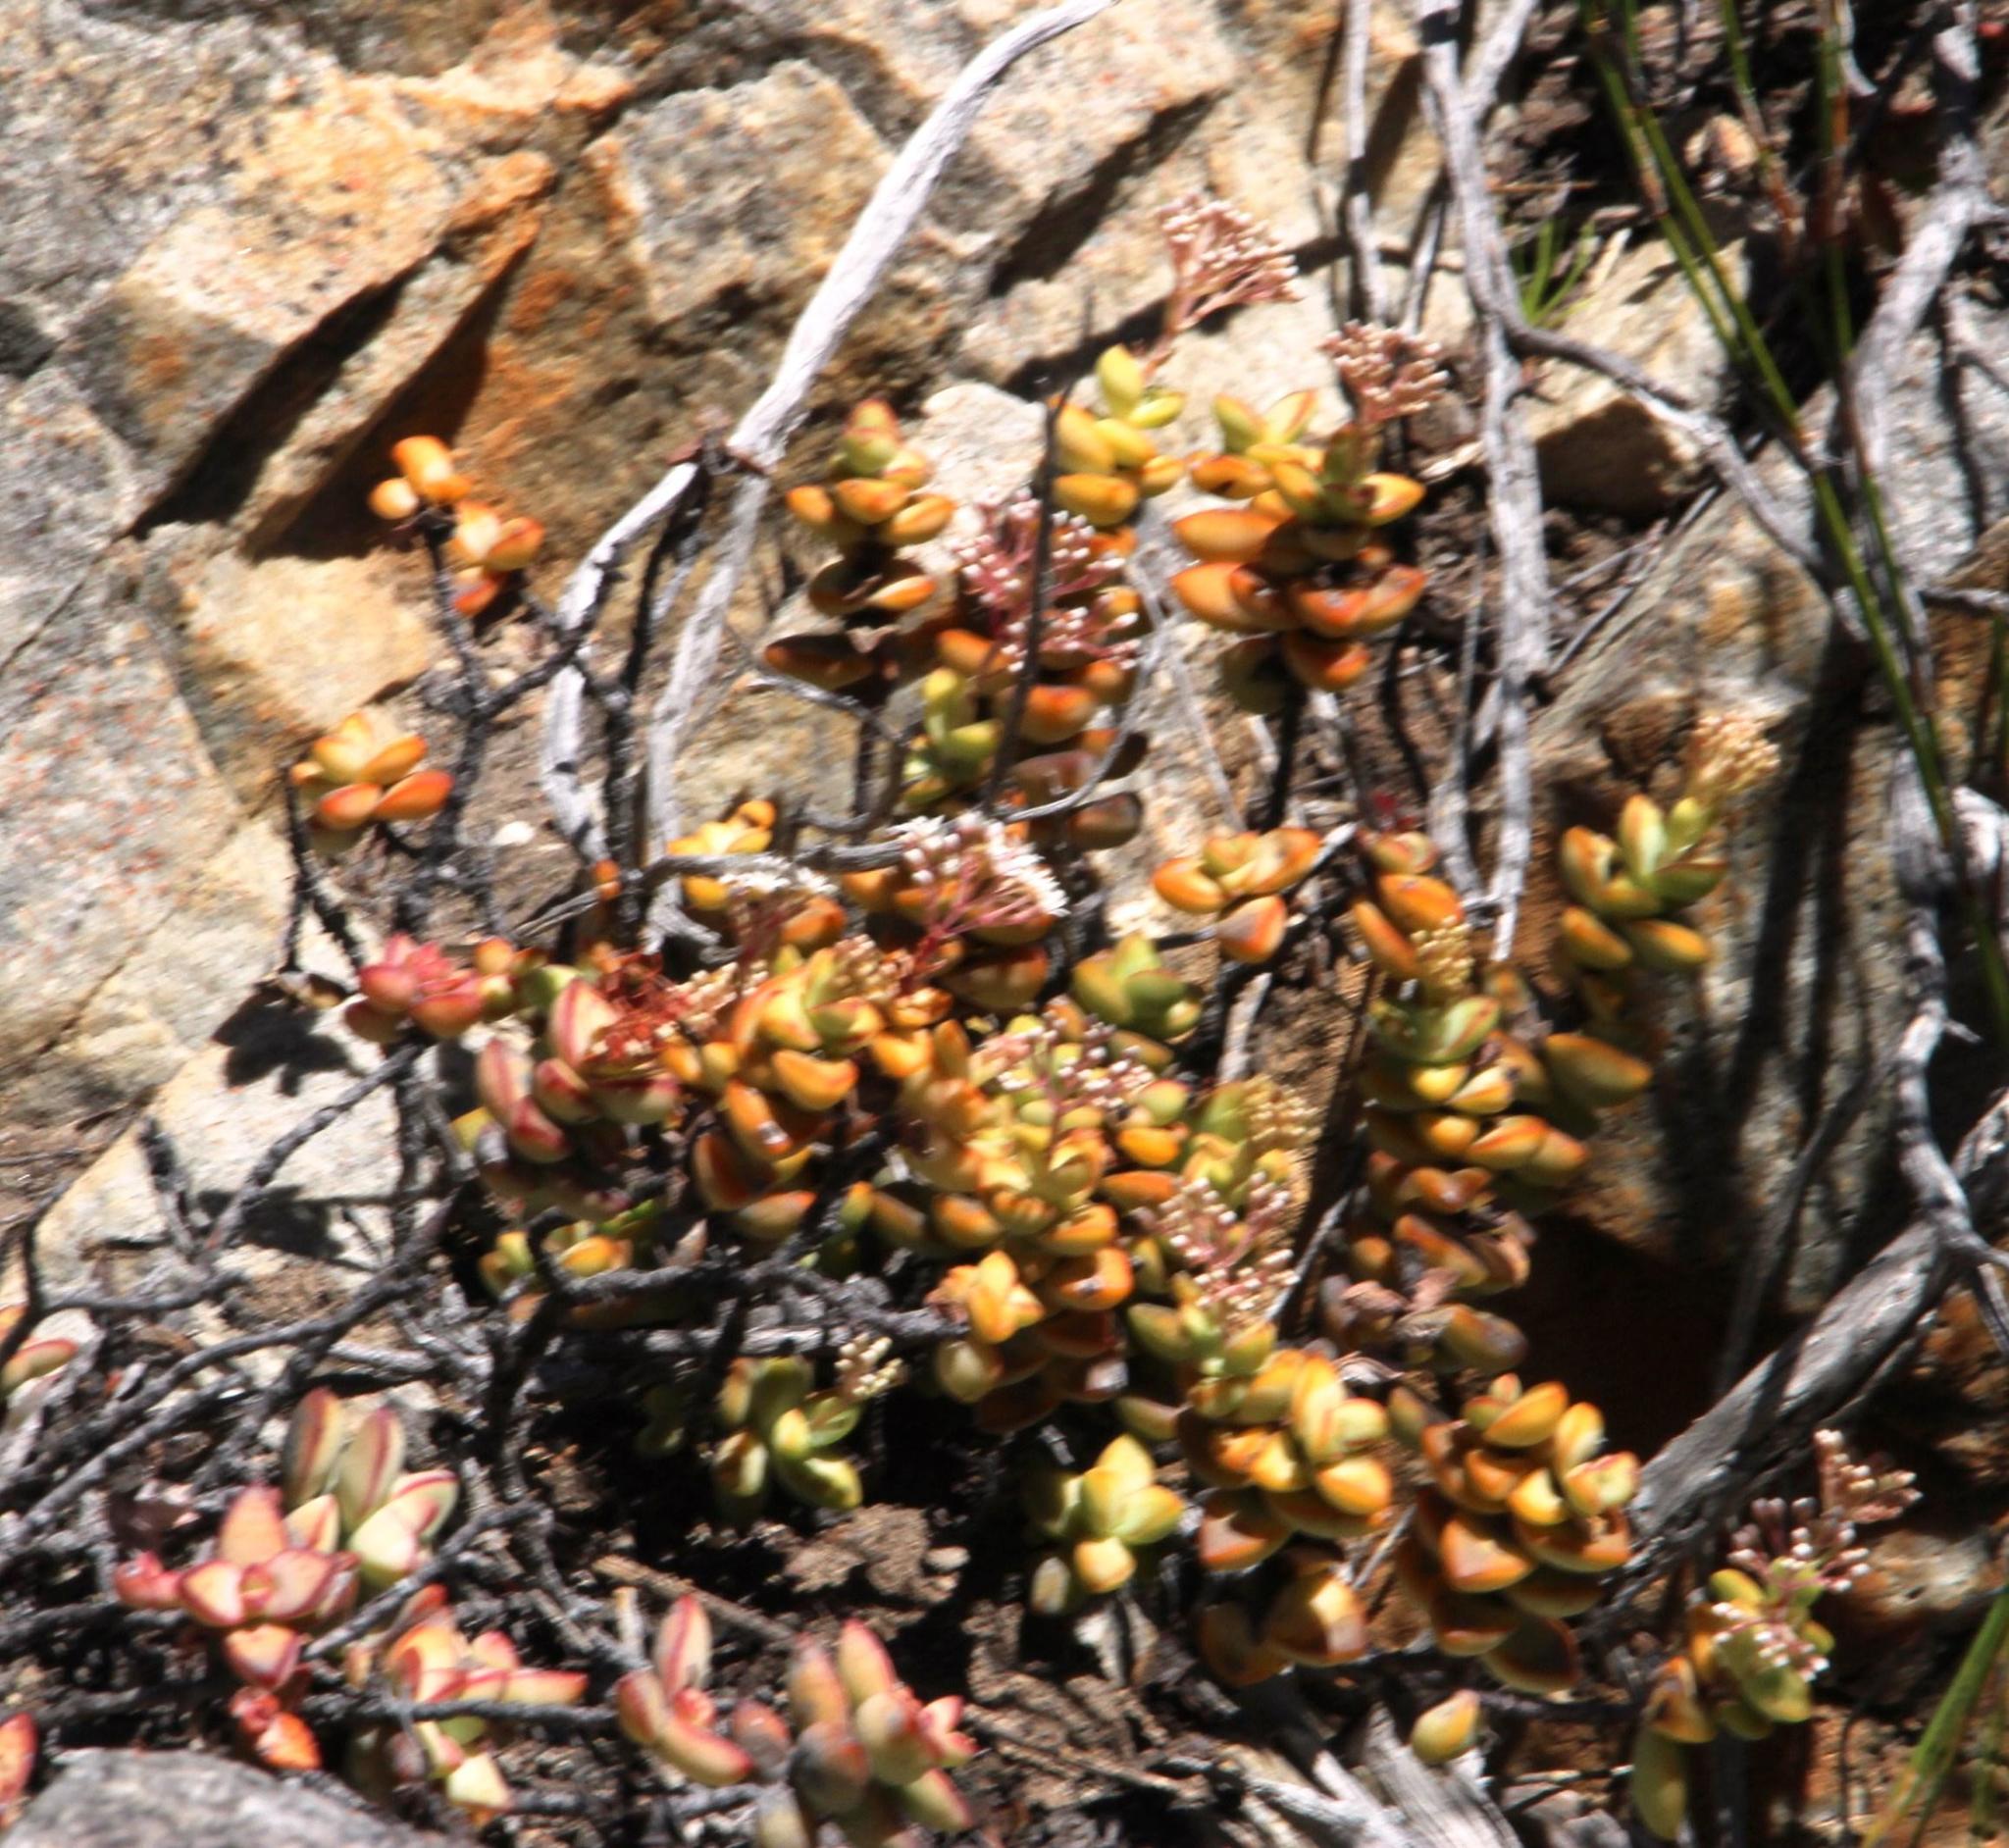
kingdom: Plantae
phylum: Tracheophyta
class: Magnoliopsida
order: Saxifragales
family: Crassulaceae
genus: Crassula
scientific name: Crassula rupestris
